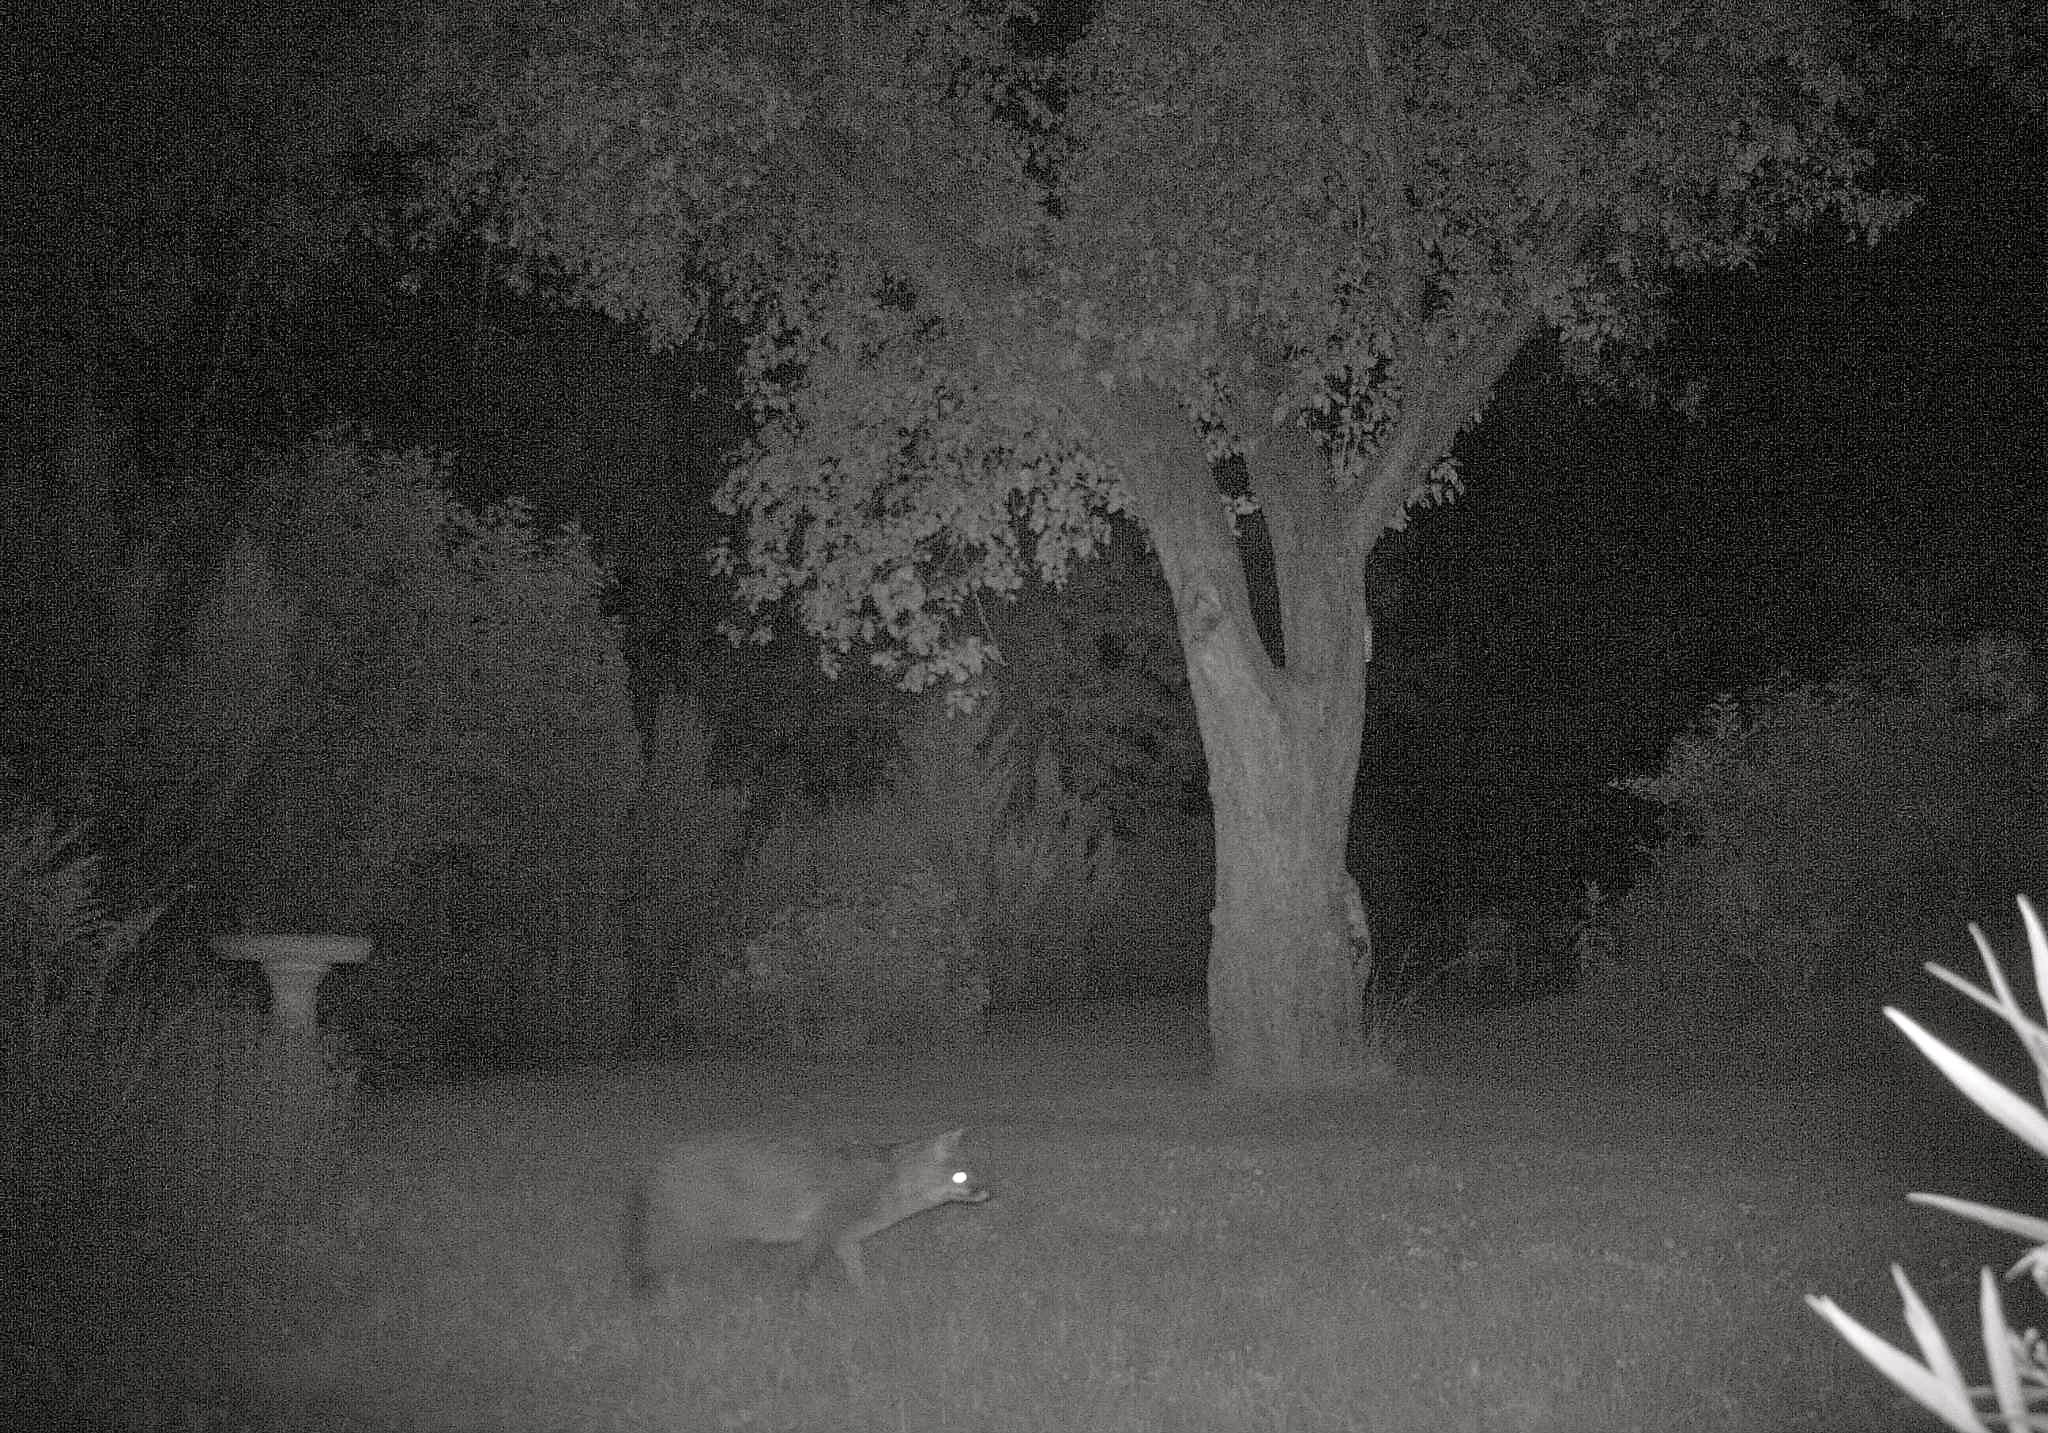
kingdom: Animalia
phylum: Chordata
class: Mammalia
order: Carnivora
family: Canidae
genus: Urocyon
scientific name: Urocyon cinereoargenteus
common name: Gray fox
